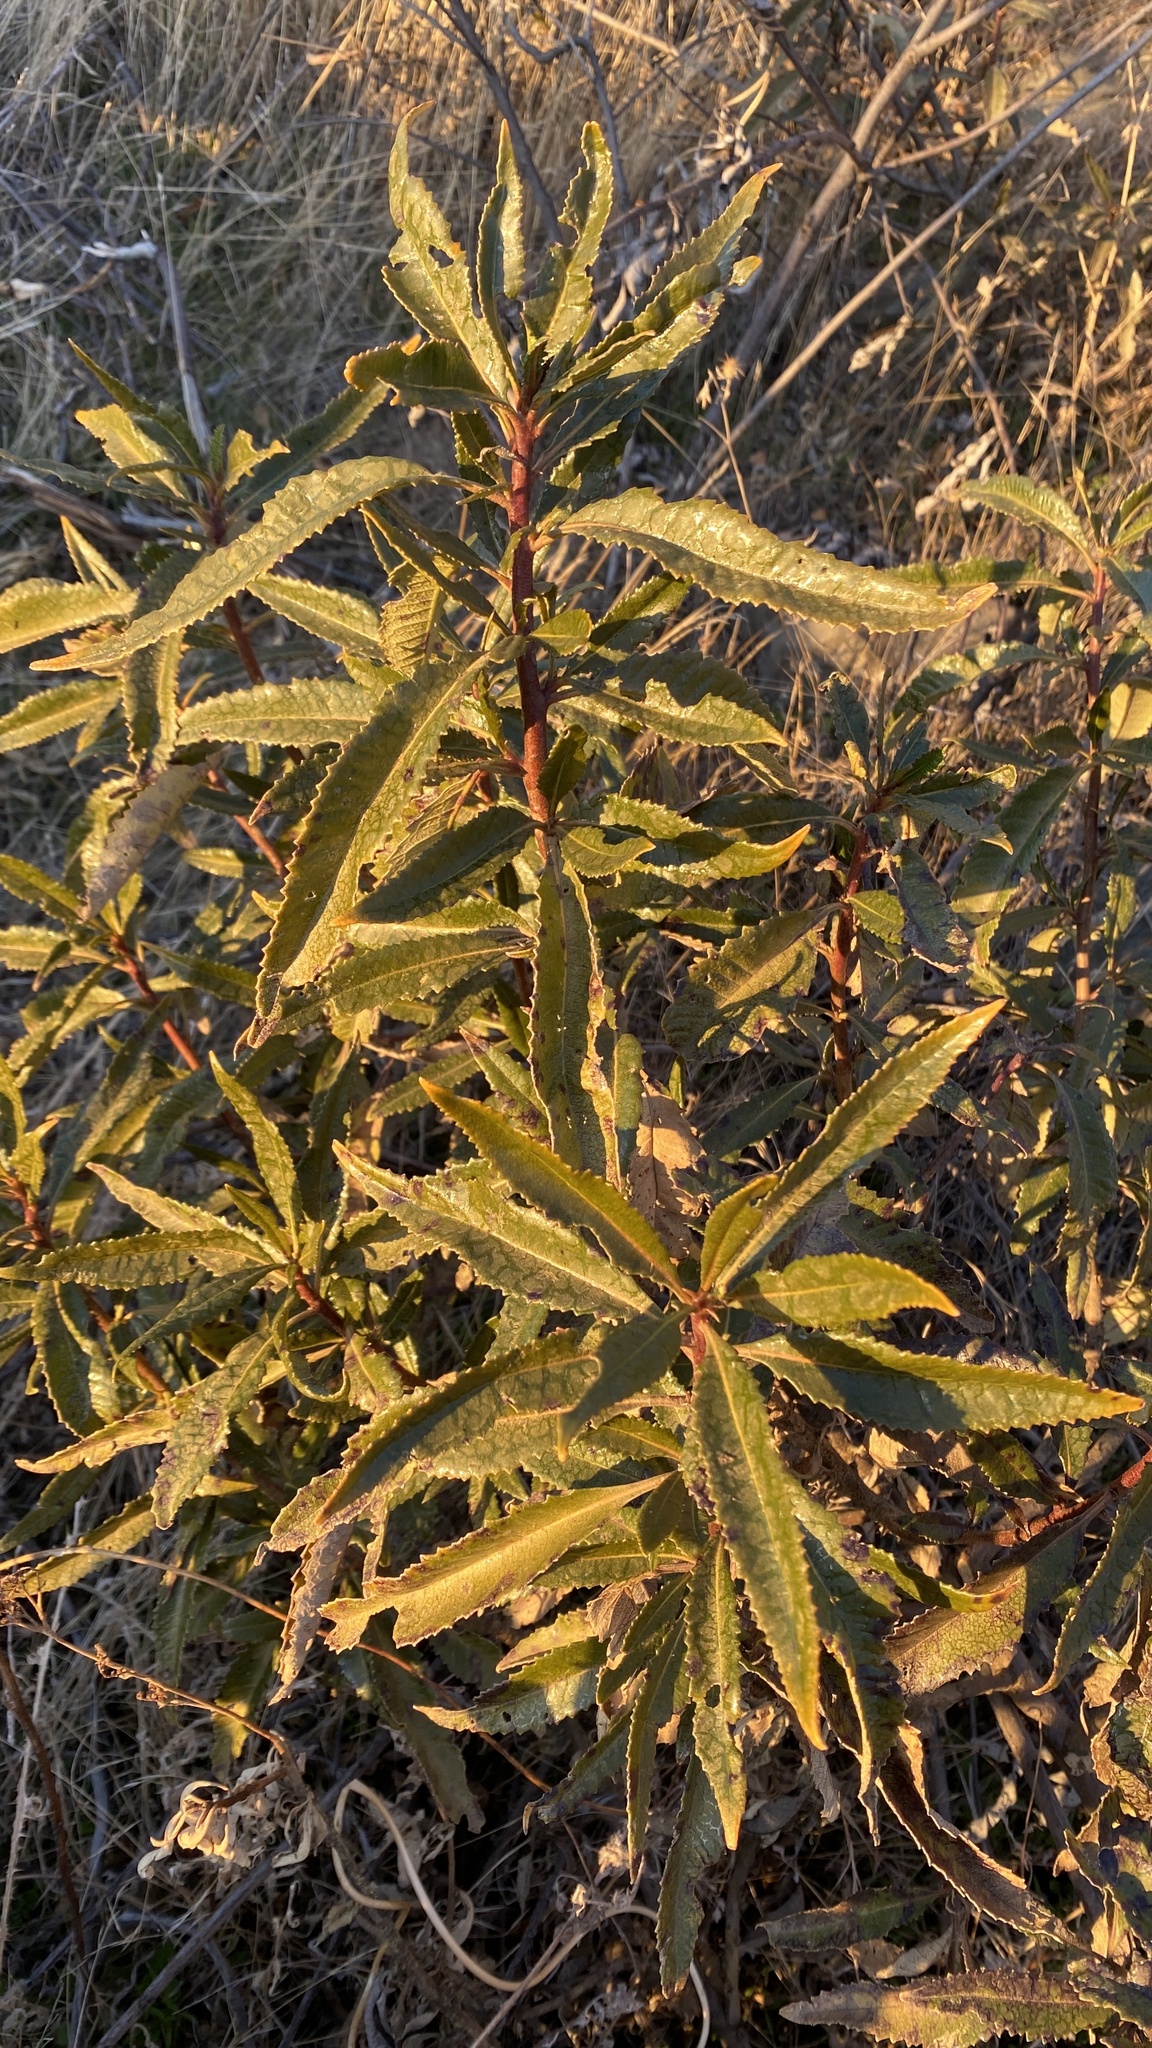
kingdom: Plantae
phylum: Tracheophyta
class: Magnoliopsida
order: Boraginales
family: Namaceae
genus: Eriodictyon
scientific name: Eriodictyon californicum
